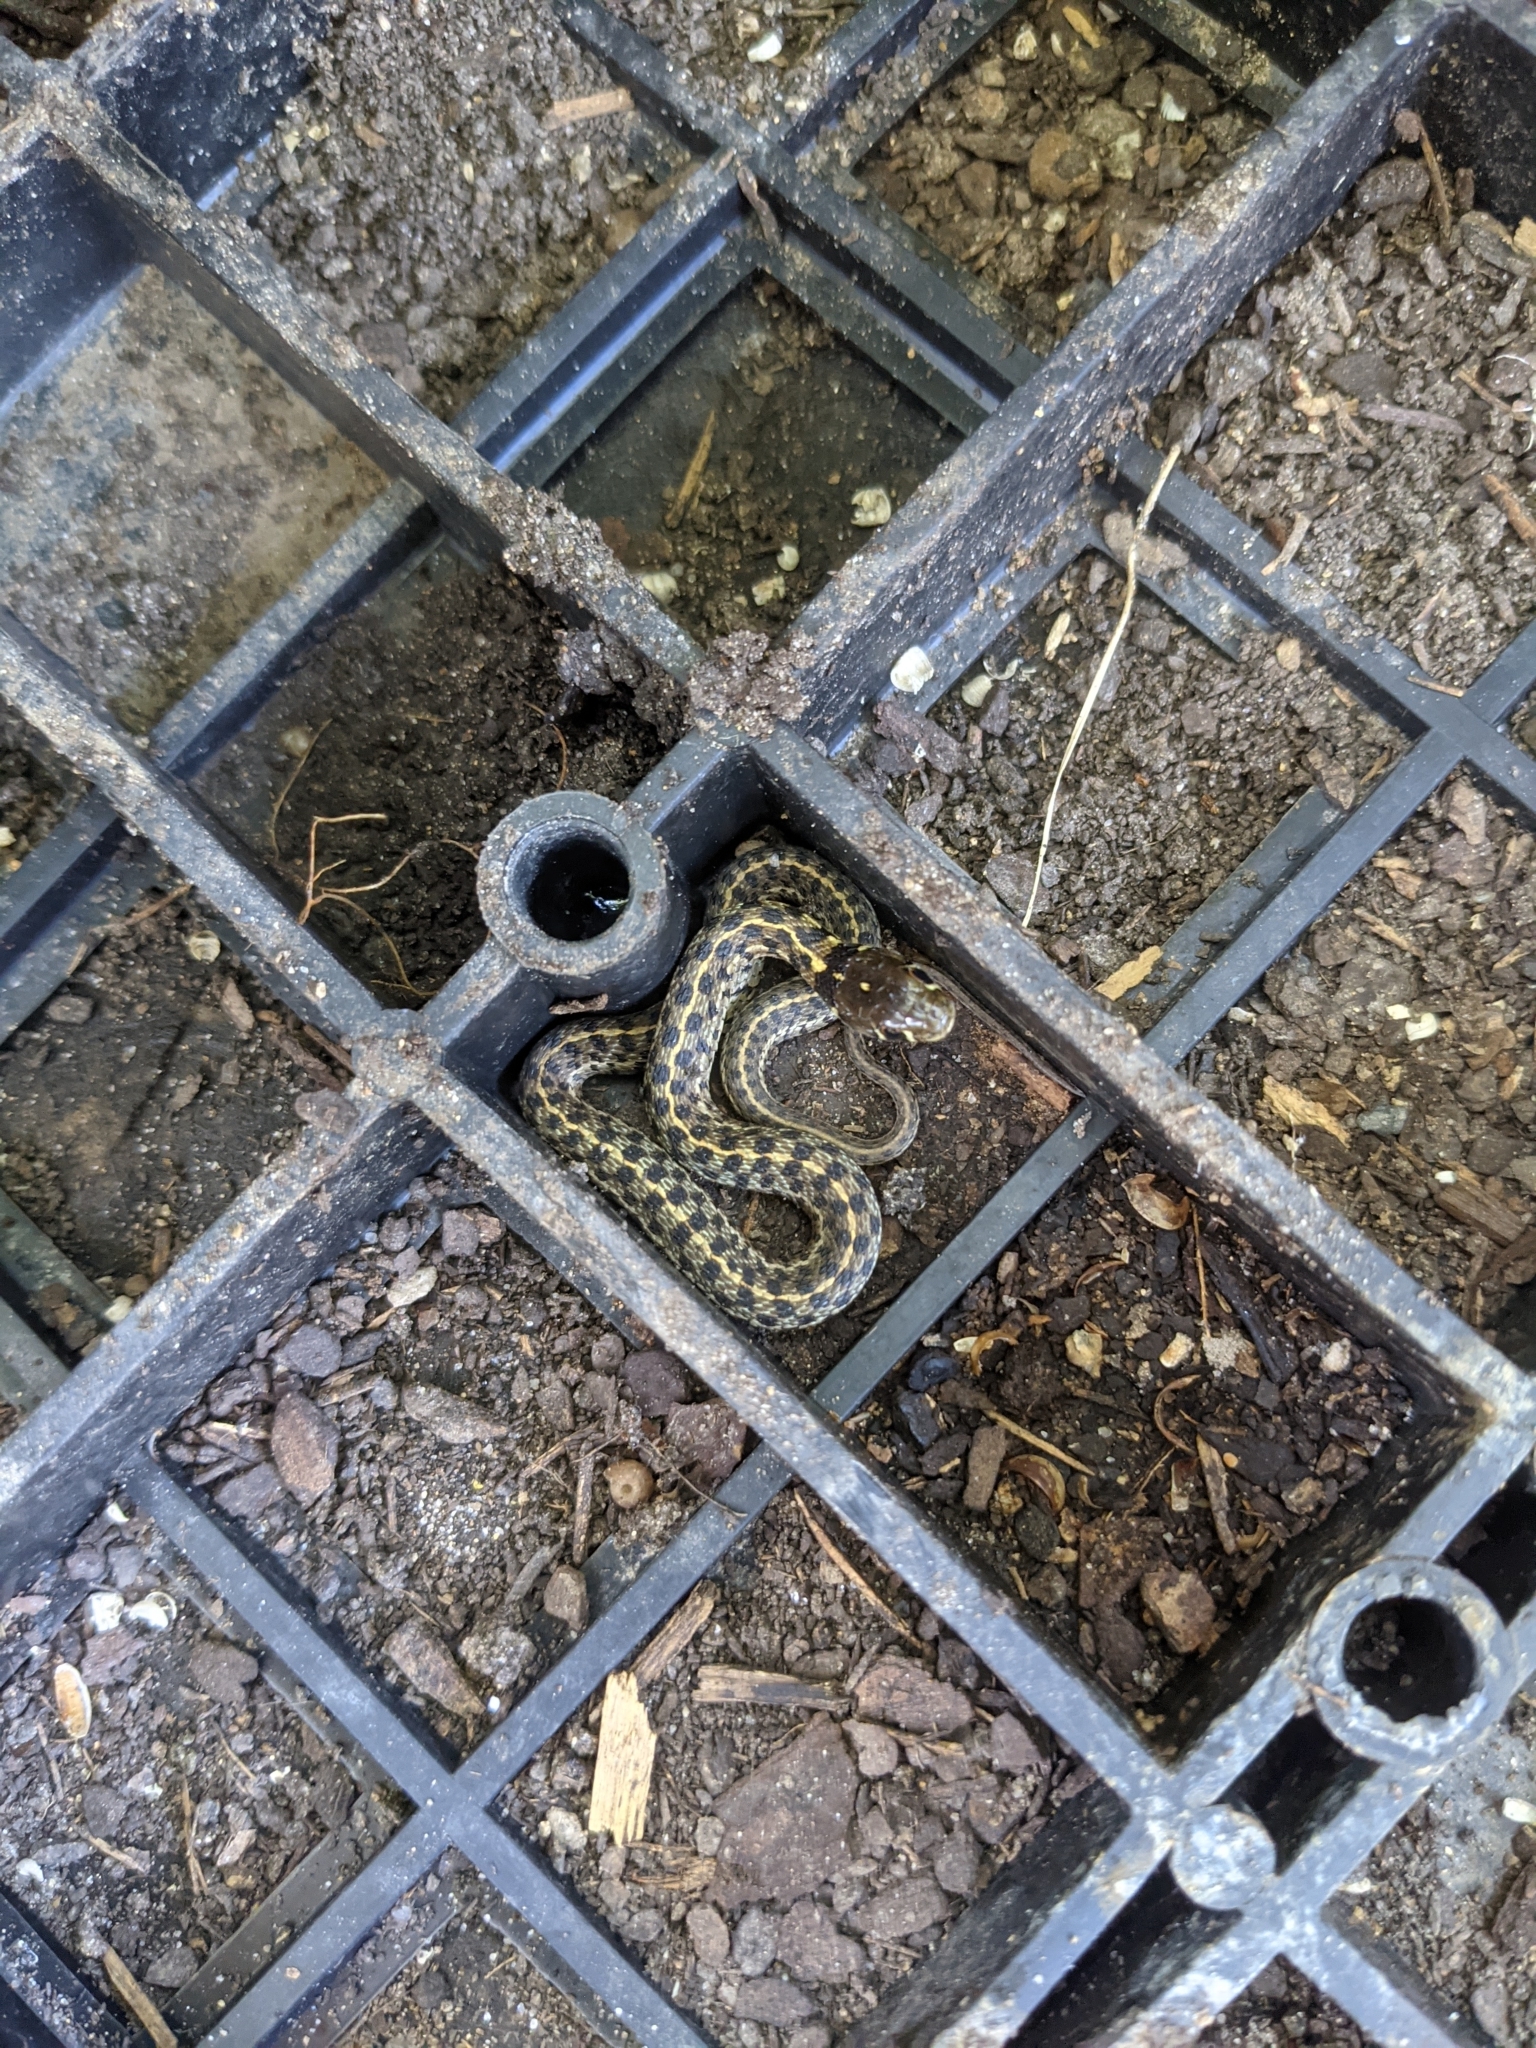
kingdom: Animalia
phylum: Chordata
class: Squamata
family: Colubridae
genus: Thamnophis
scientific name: Thamnophis marcianus
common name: Checkered garter snake
